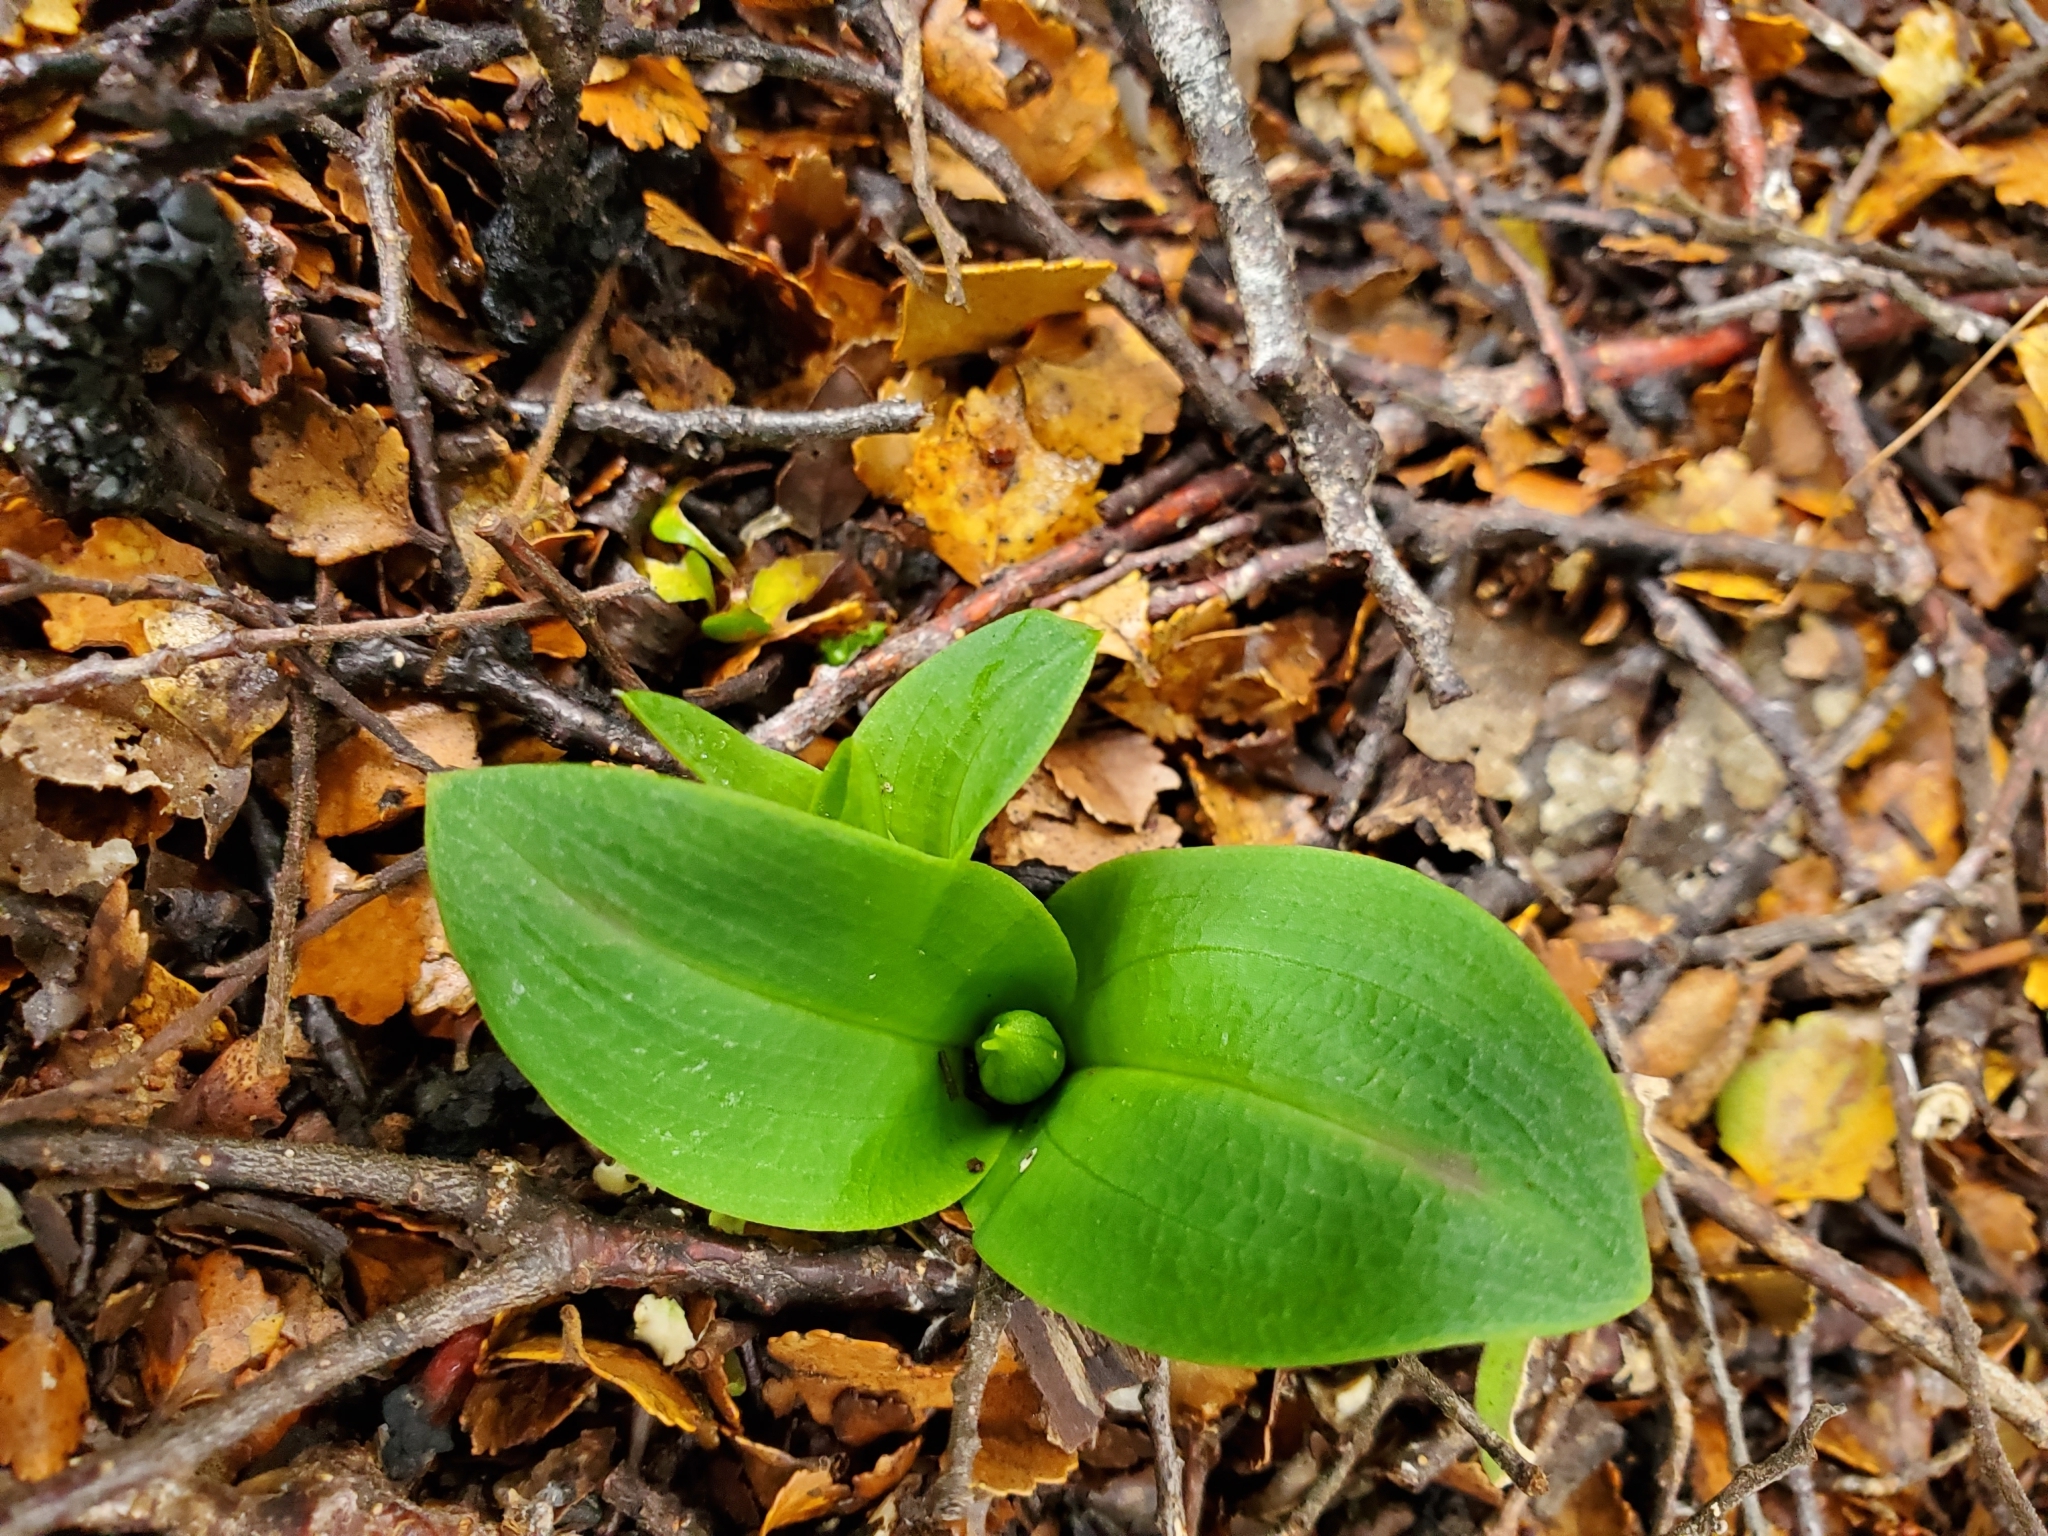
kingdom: Plantae
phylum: Tracheophyta
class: Liliopsida
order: Asparagales
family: Orchidaceae
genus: Chiloglottis
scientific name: Chiloglottis cornuta
